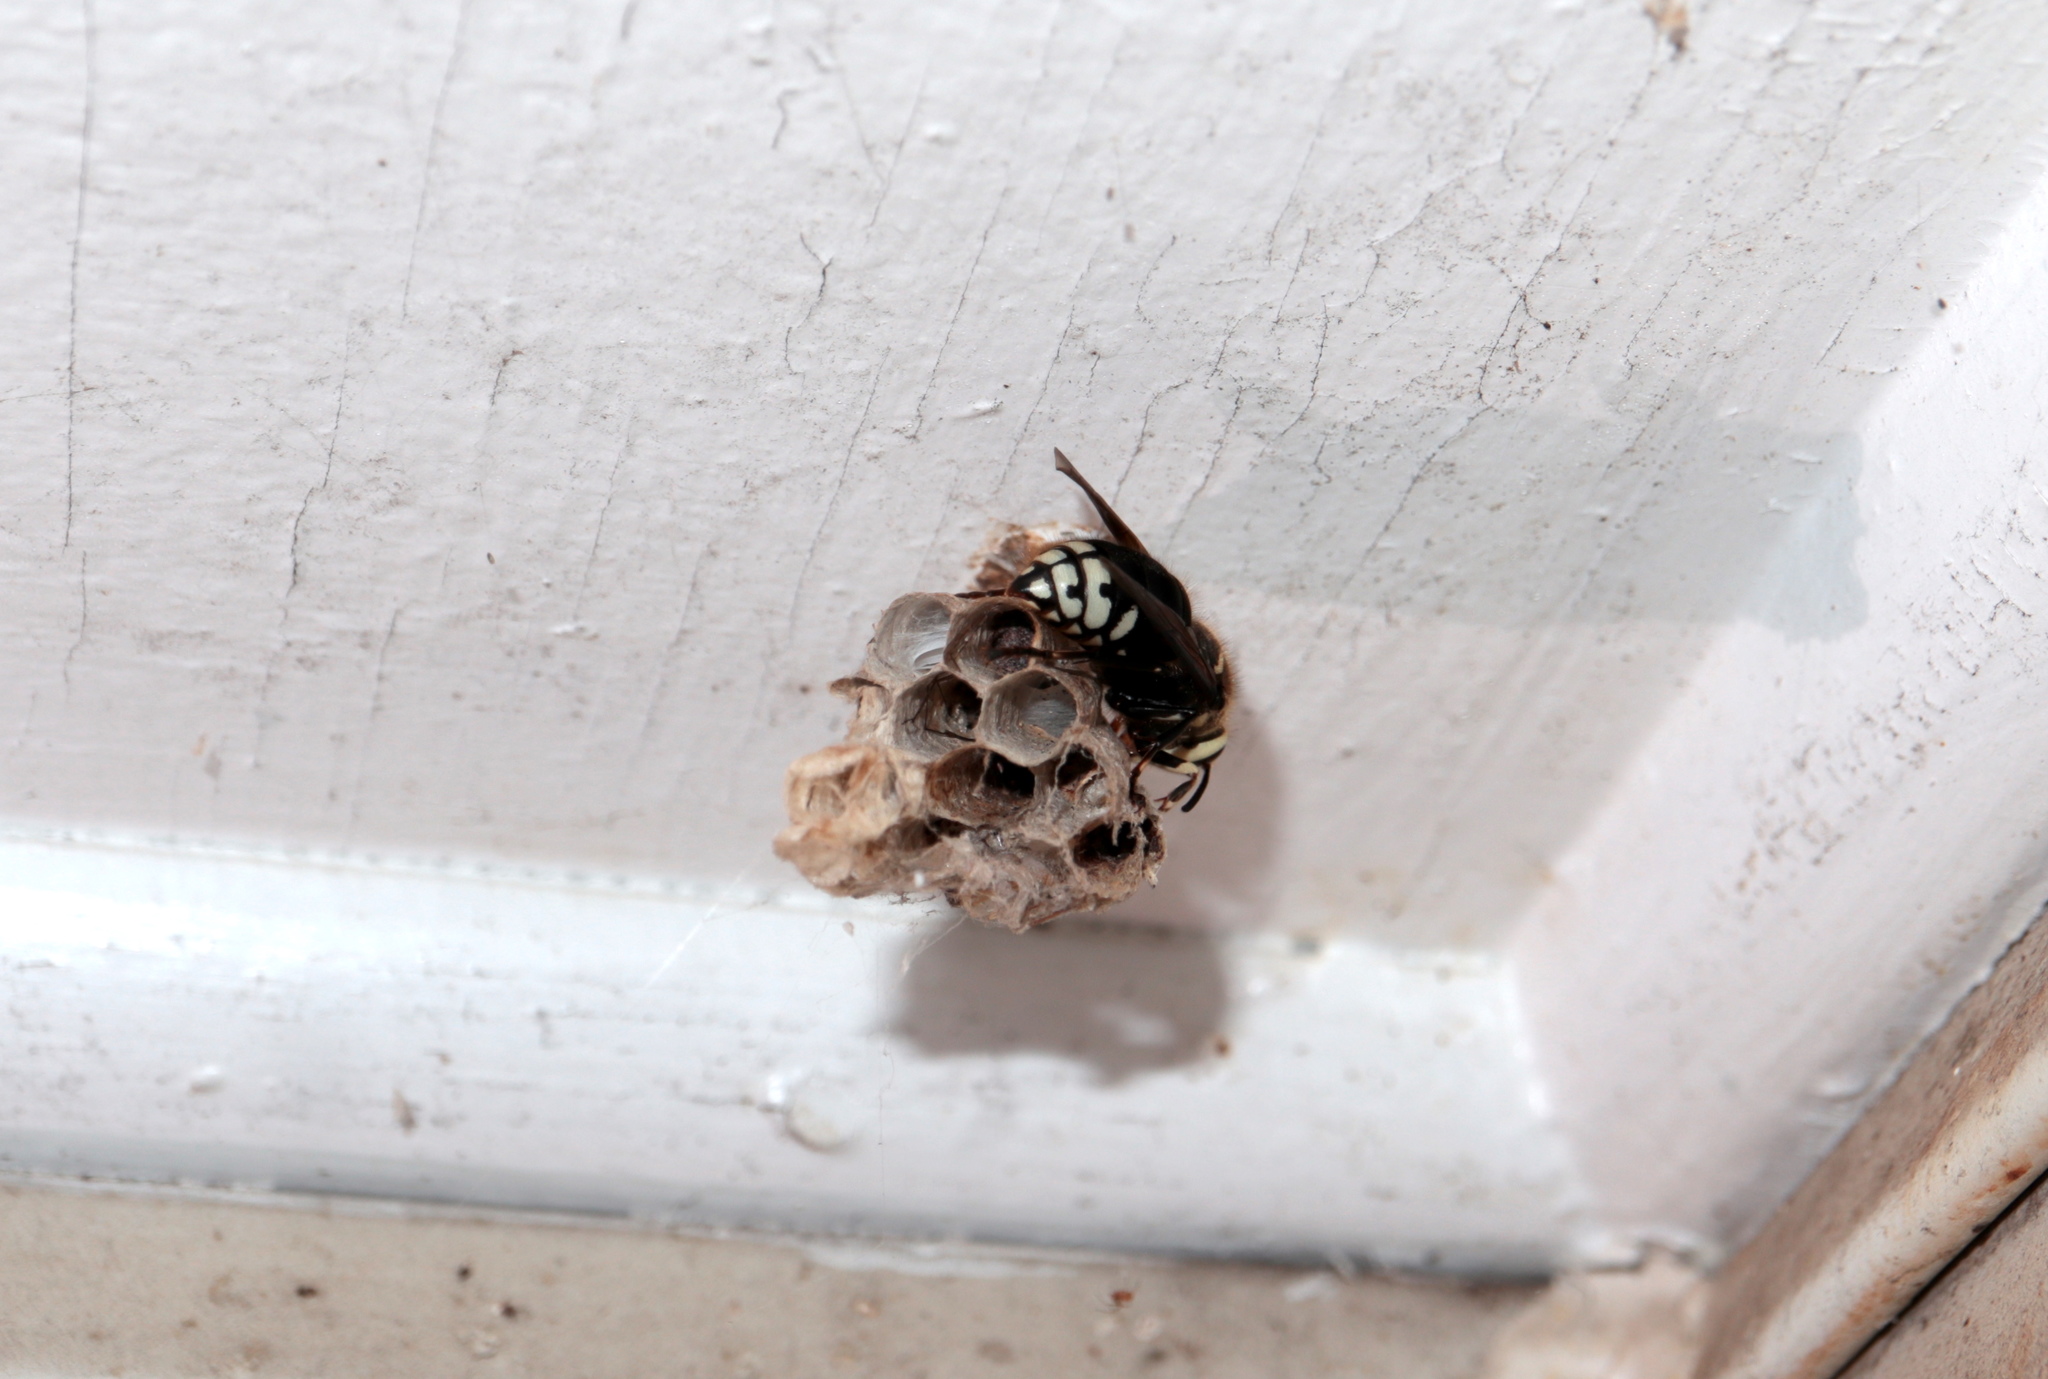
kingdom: Animalia
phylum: Arthropoda
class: Insecta
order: Hymenoptera
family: Vespidae
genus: Dolichovespula
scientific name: Dolichovespula maculata
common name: Bald-faced hornet
